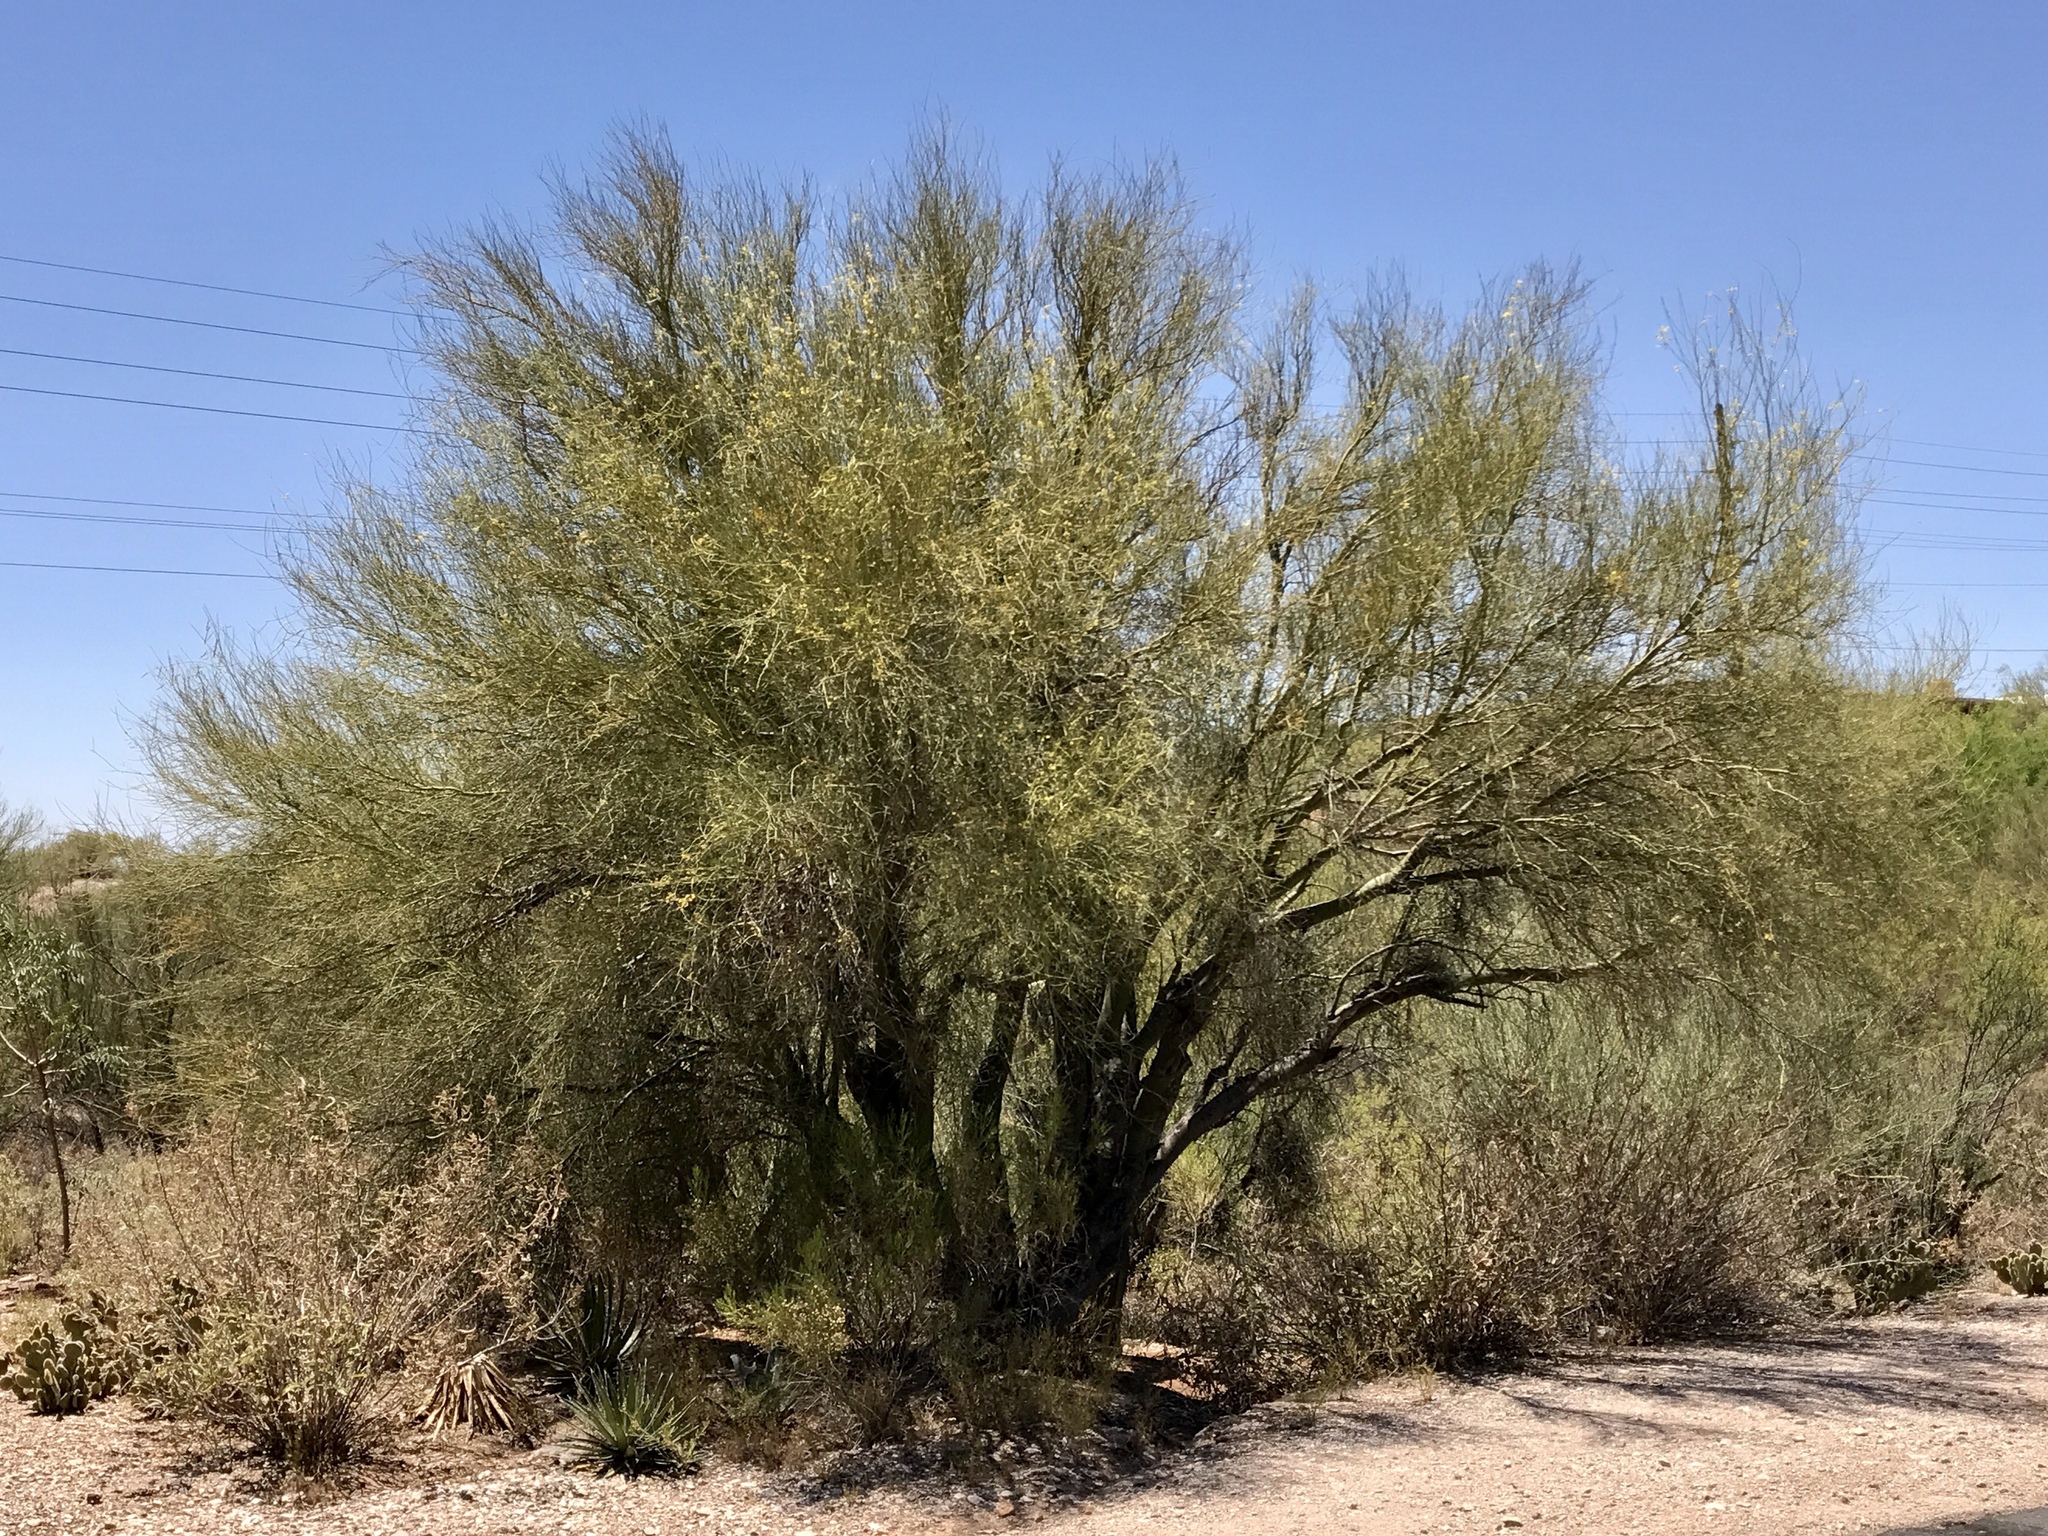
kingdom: Plantae
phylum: Tracheophyta
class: Magnoliopsida
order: Fabales
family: Fabaceae
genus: Parkinsonia
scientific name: Parkinsonia microphylla
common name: Yellow paloverde
